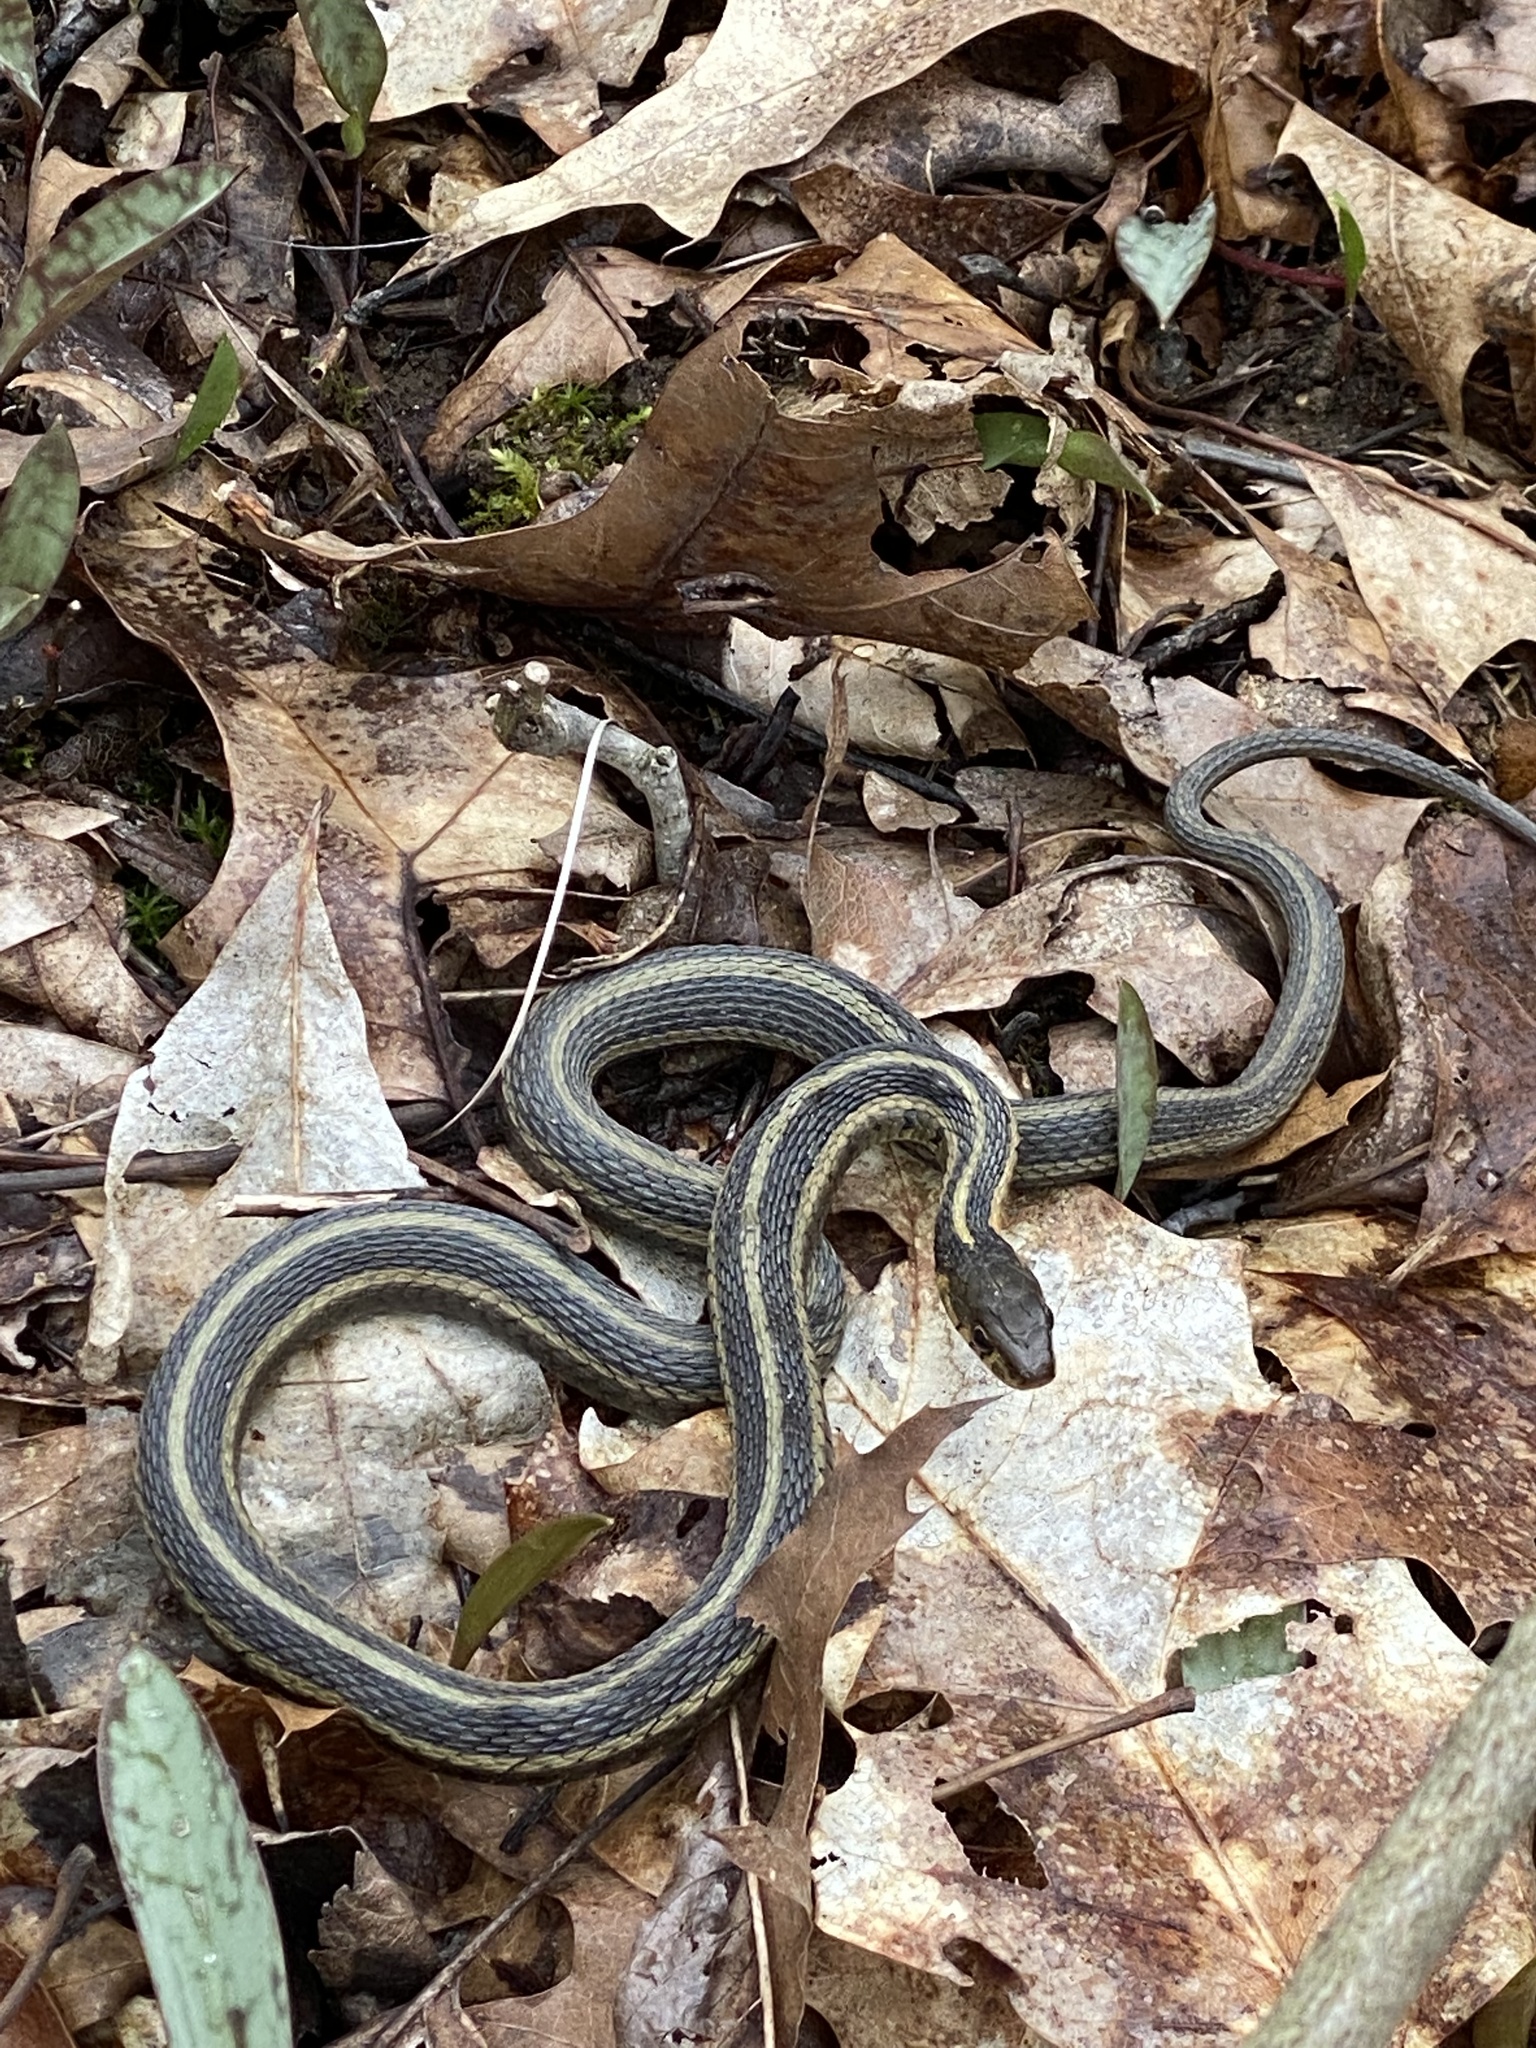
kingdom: Animalia
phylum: Chordata
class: Squamata
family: Colubridae
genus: Thamnophis
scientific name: Thamnophis sirtalis
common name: Common garter snake
